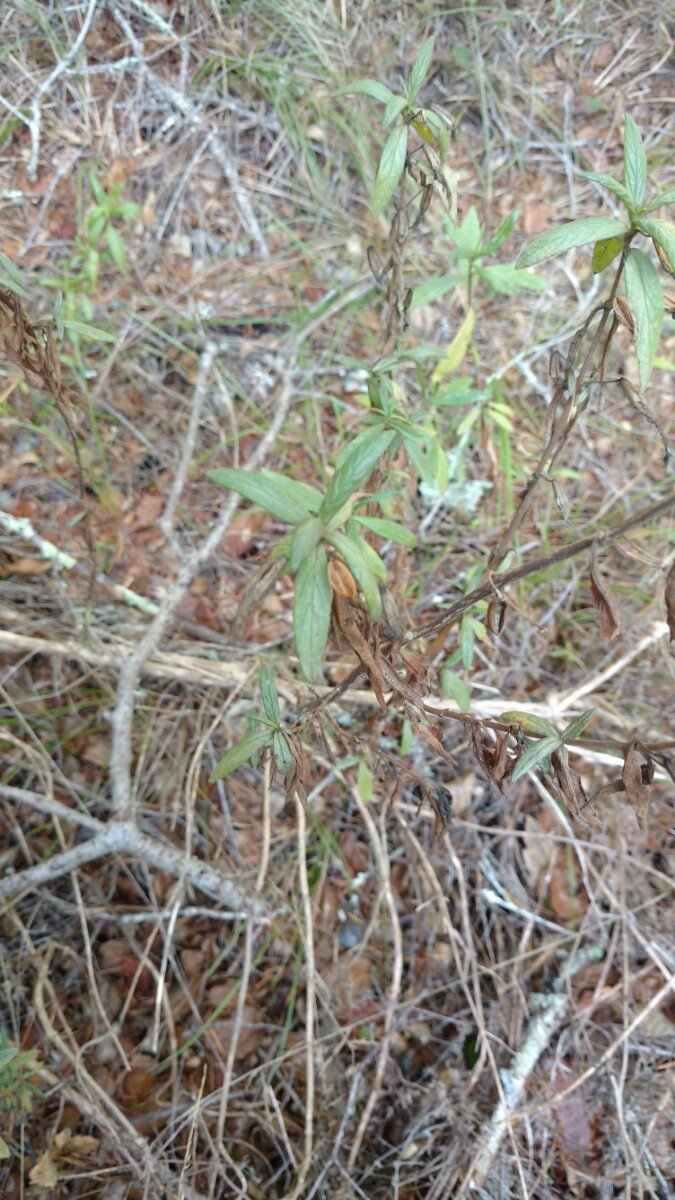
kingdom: Plantae
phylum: Tracheophyta
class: Magnoliopsida
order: Lamiales
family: Phrymaceae
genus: Diplacus
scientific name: Diplacus aurantiacus
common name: Bush monkey-flower
